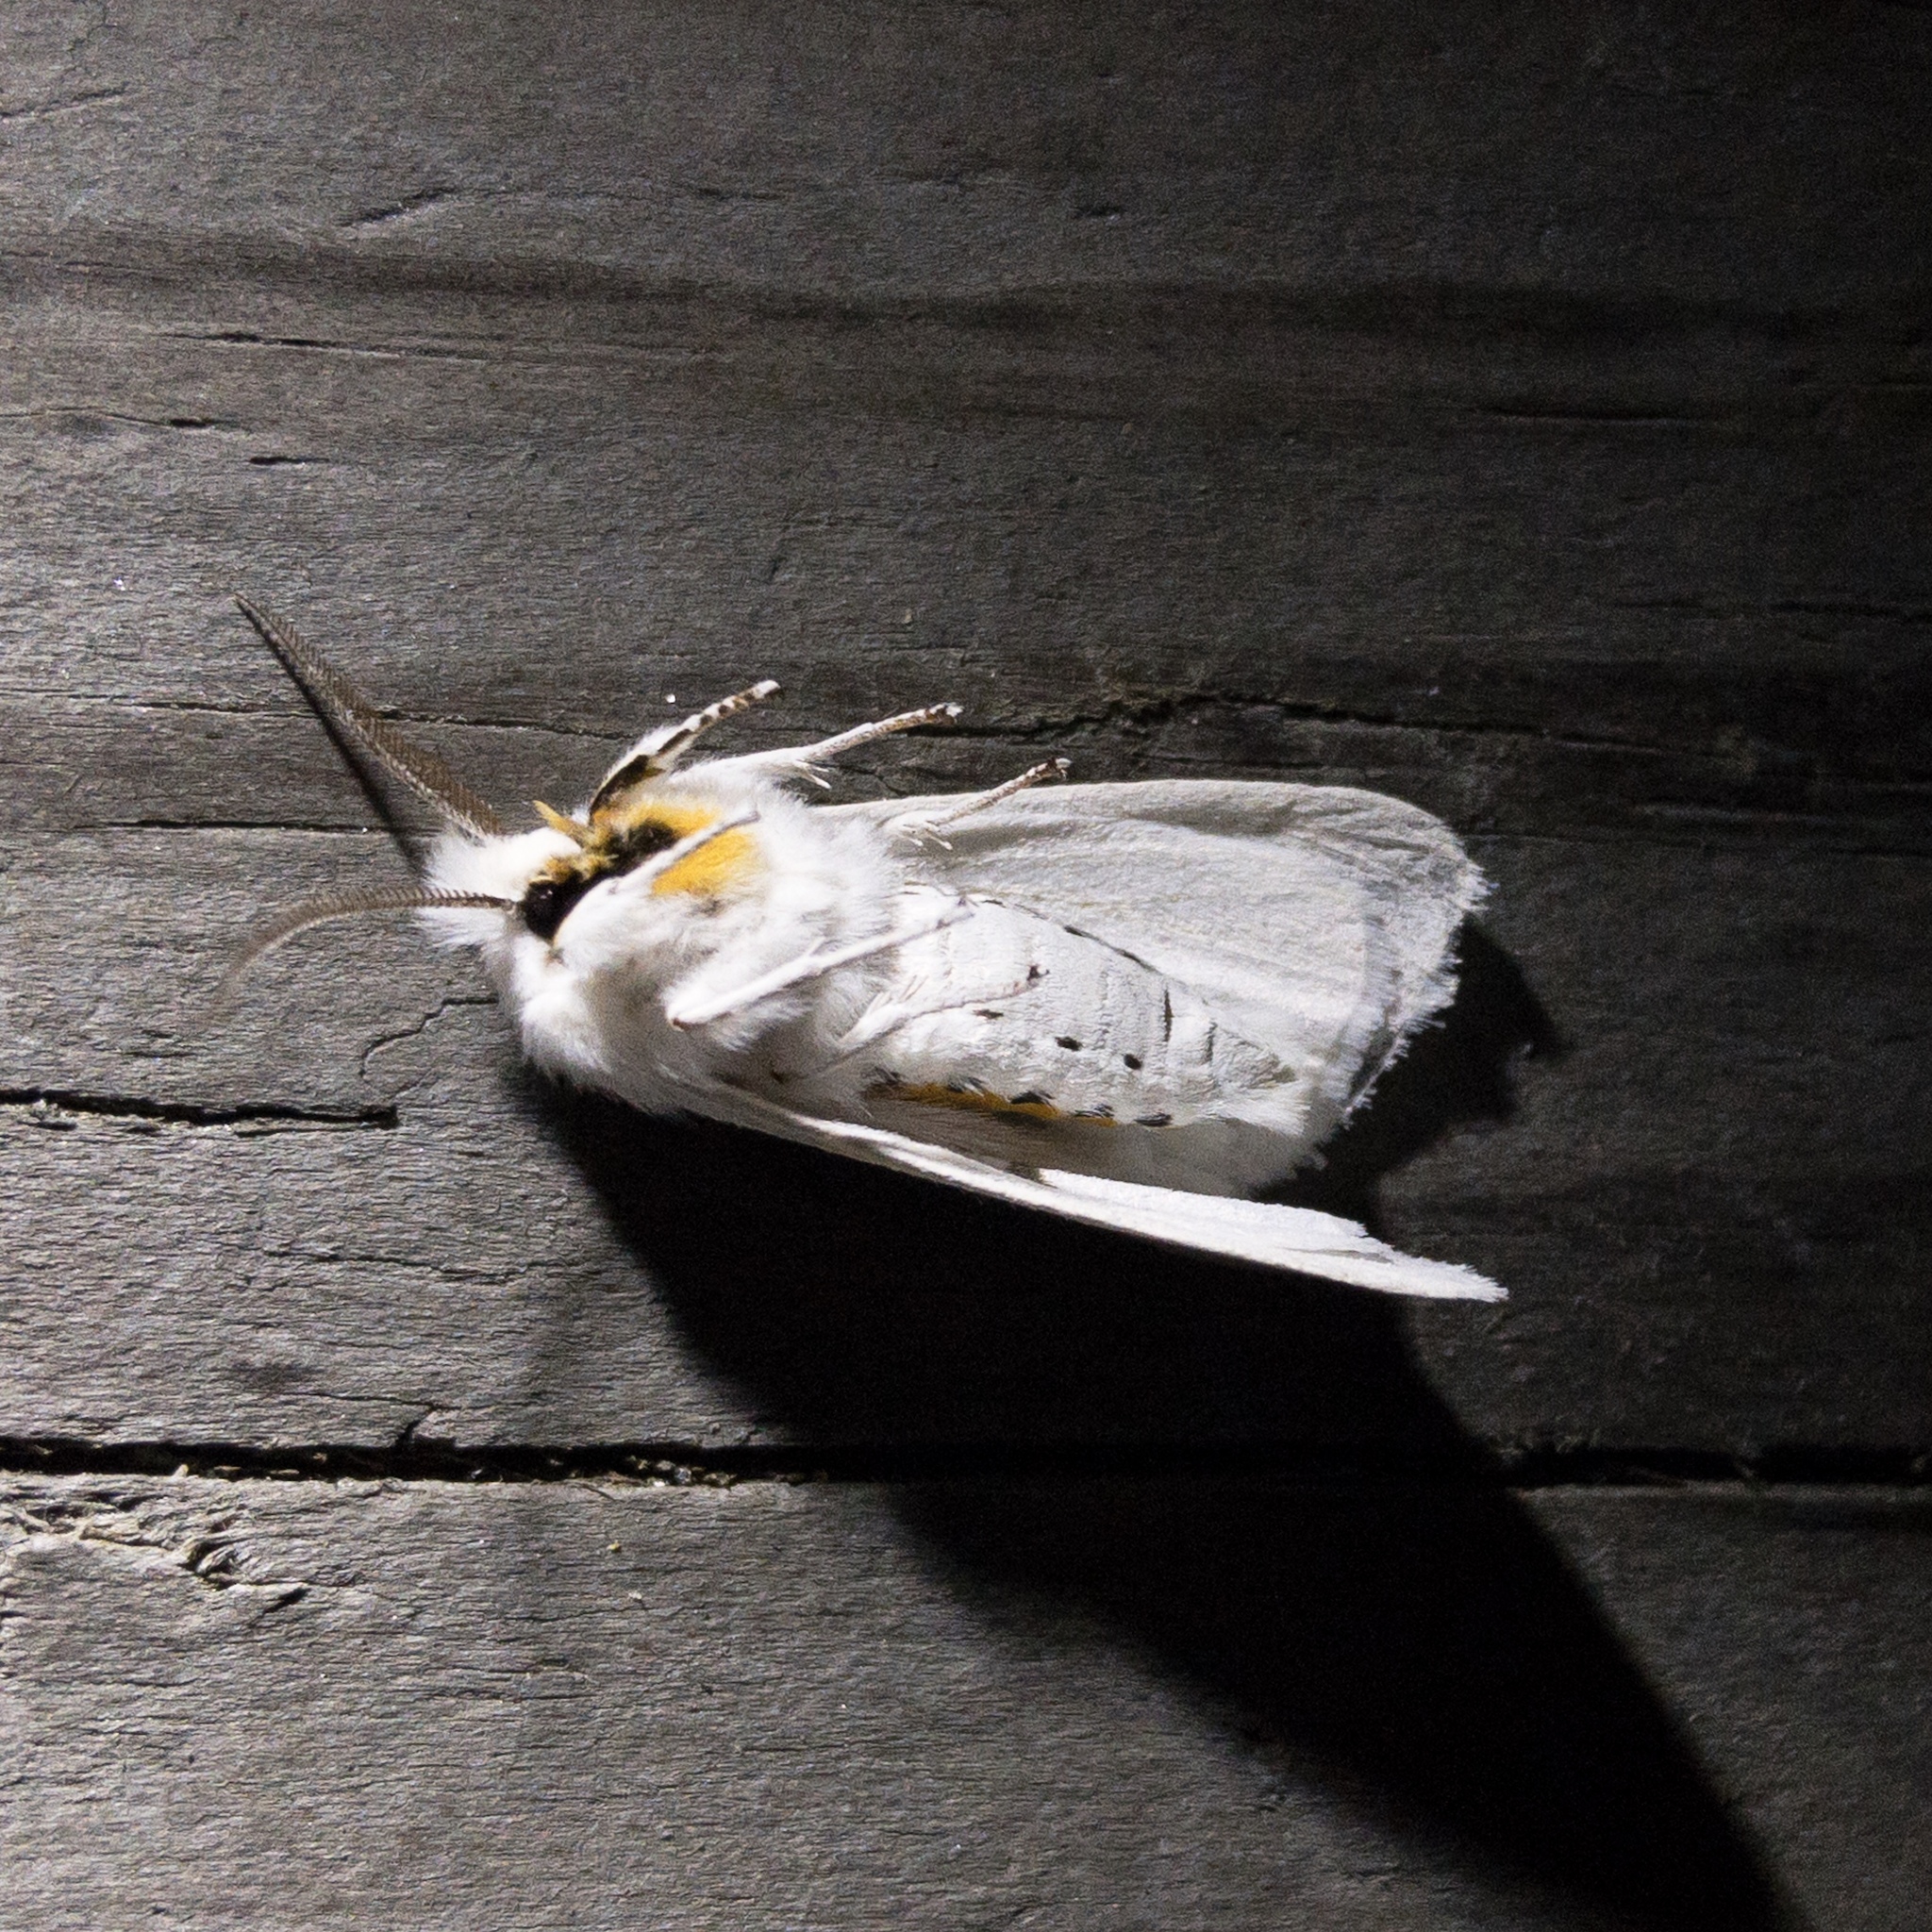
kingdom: Animalia
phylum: Arthropoda
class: Insecta
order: Lepidoptera
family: Erebidae
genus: Spilosoma
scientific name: Spilosoma virginica
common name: Virginia tiger moth
